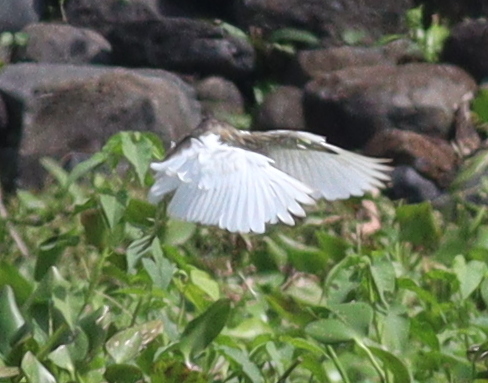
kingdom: Animalia
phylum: Chordata
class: Aves
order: Pelecaniformes
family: Ardeidae
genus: Ardeola
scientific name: Ardeola speciosa
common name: Javan pond heron
